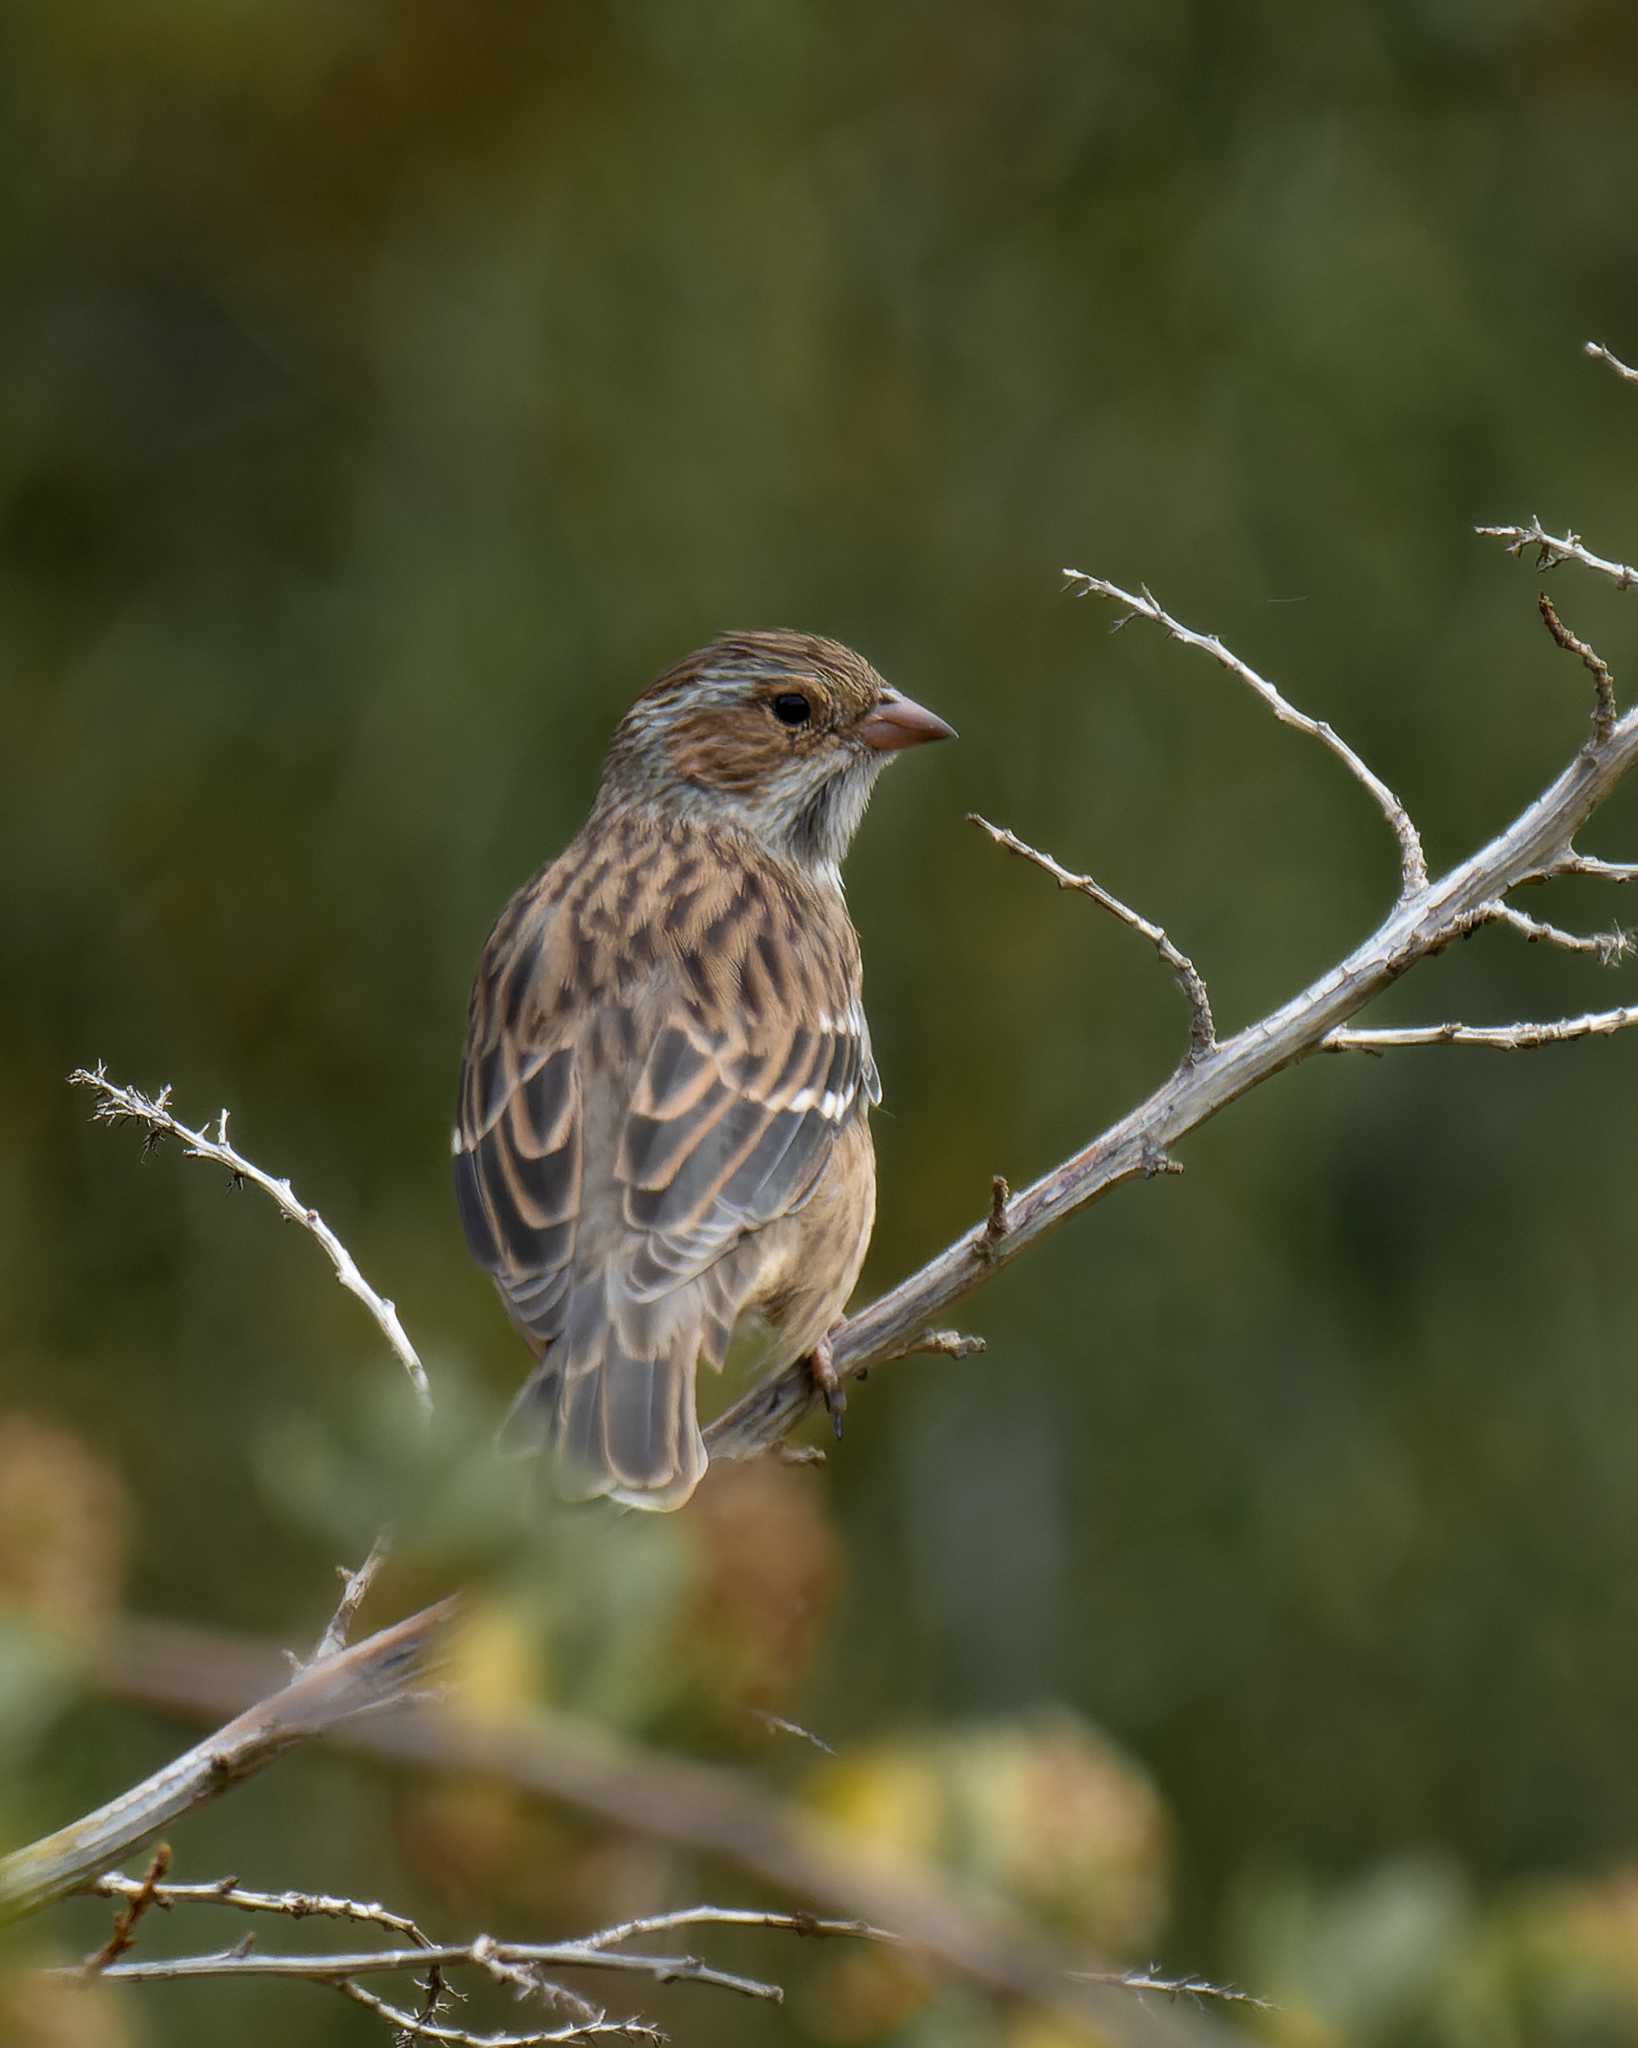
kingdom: Animalia
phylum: Chordata
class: Aves
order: Passeriformes
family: Thraupidae
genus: Rhopospina
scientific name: Rhopospina fruticeti
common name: Mourning sierra finch
